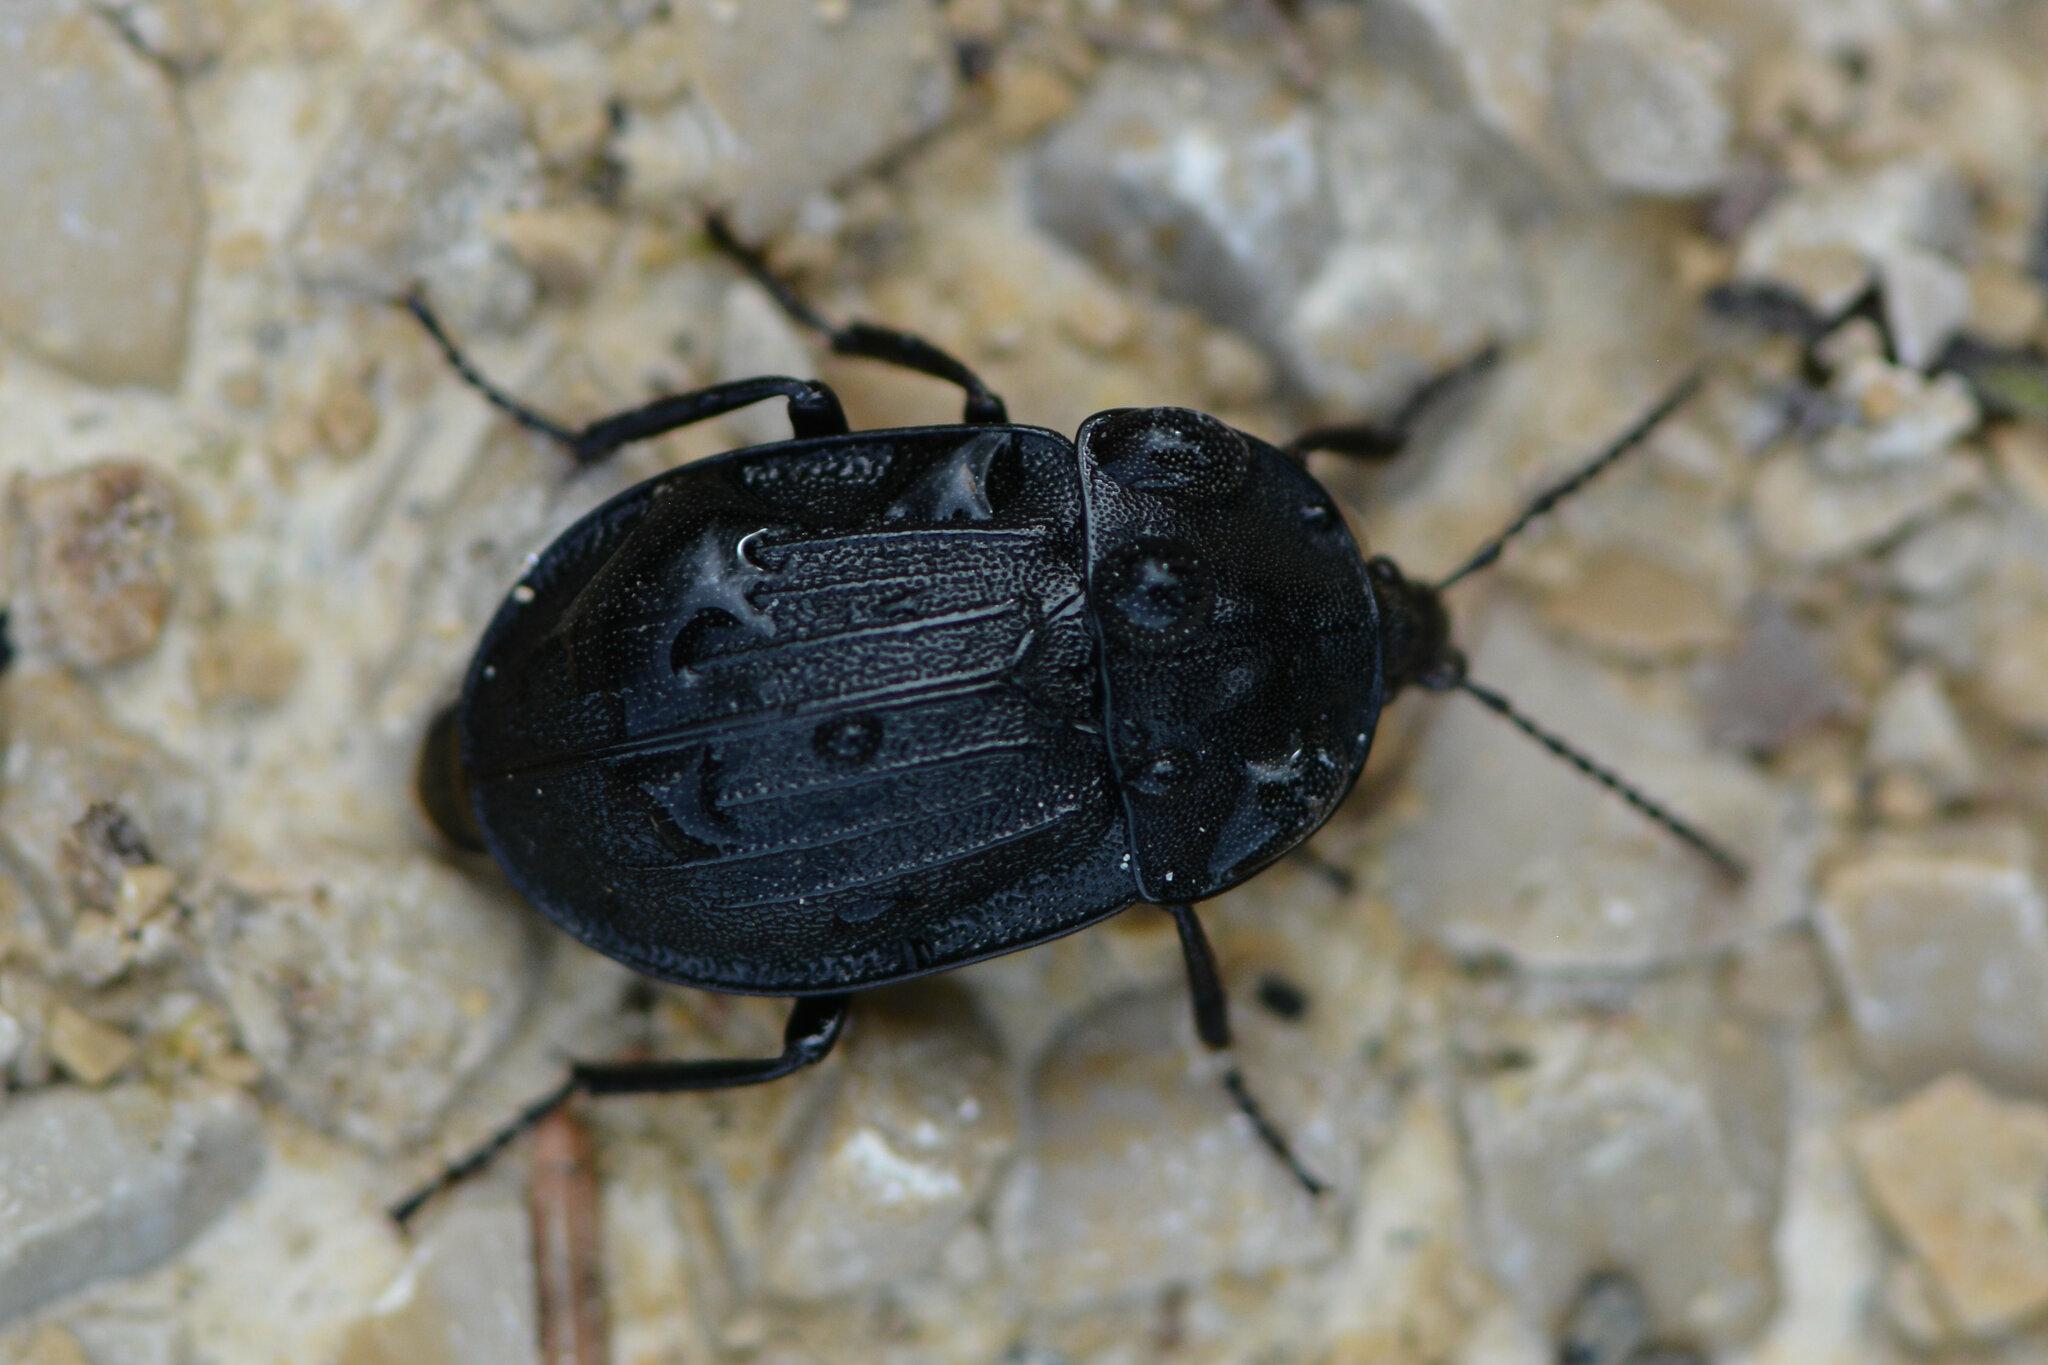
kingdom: Animalia
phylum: Arthropoda
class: Insecta
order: Coleoptera
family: Staphylinidae
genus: Silpha
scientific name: Silpha atrata
